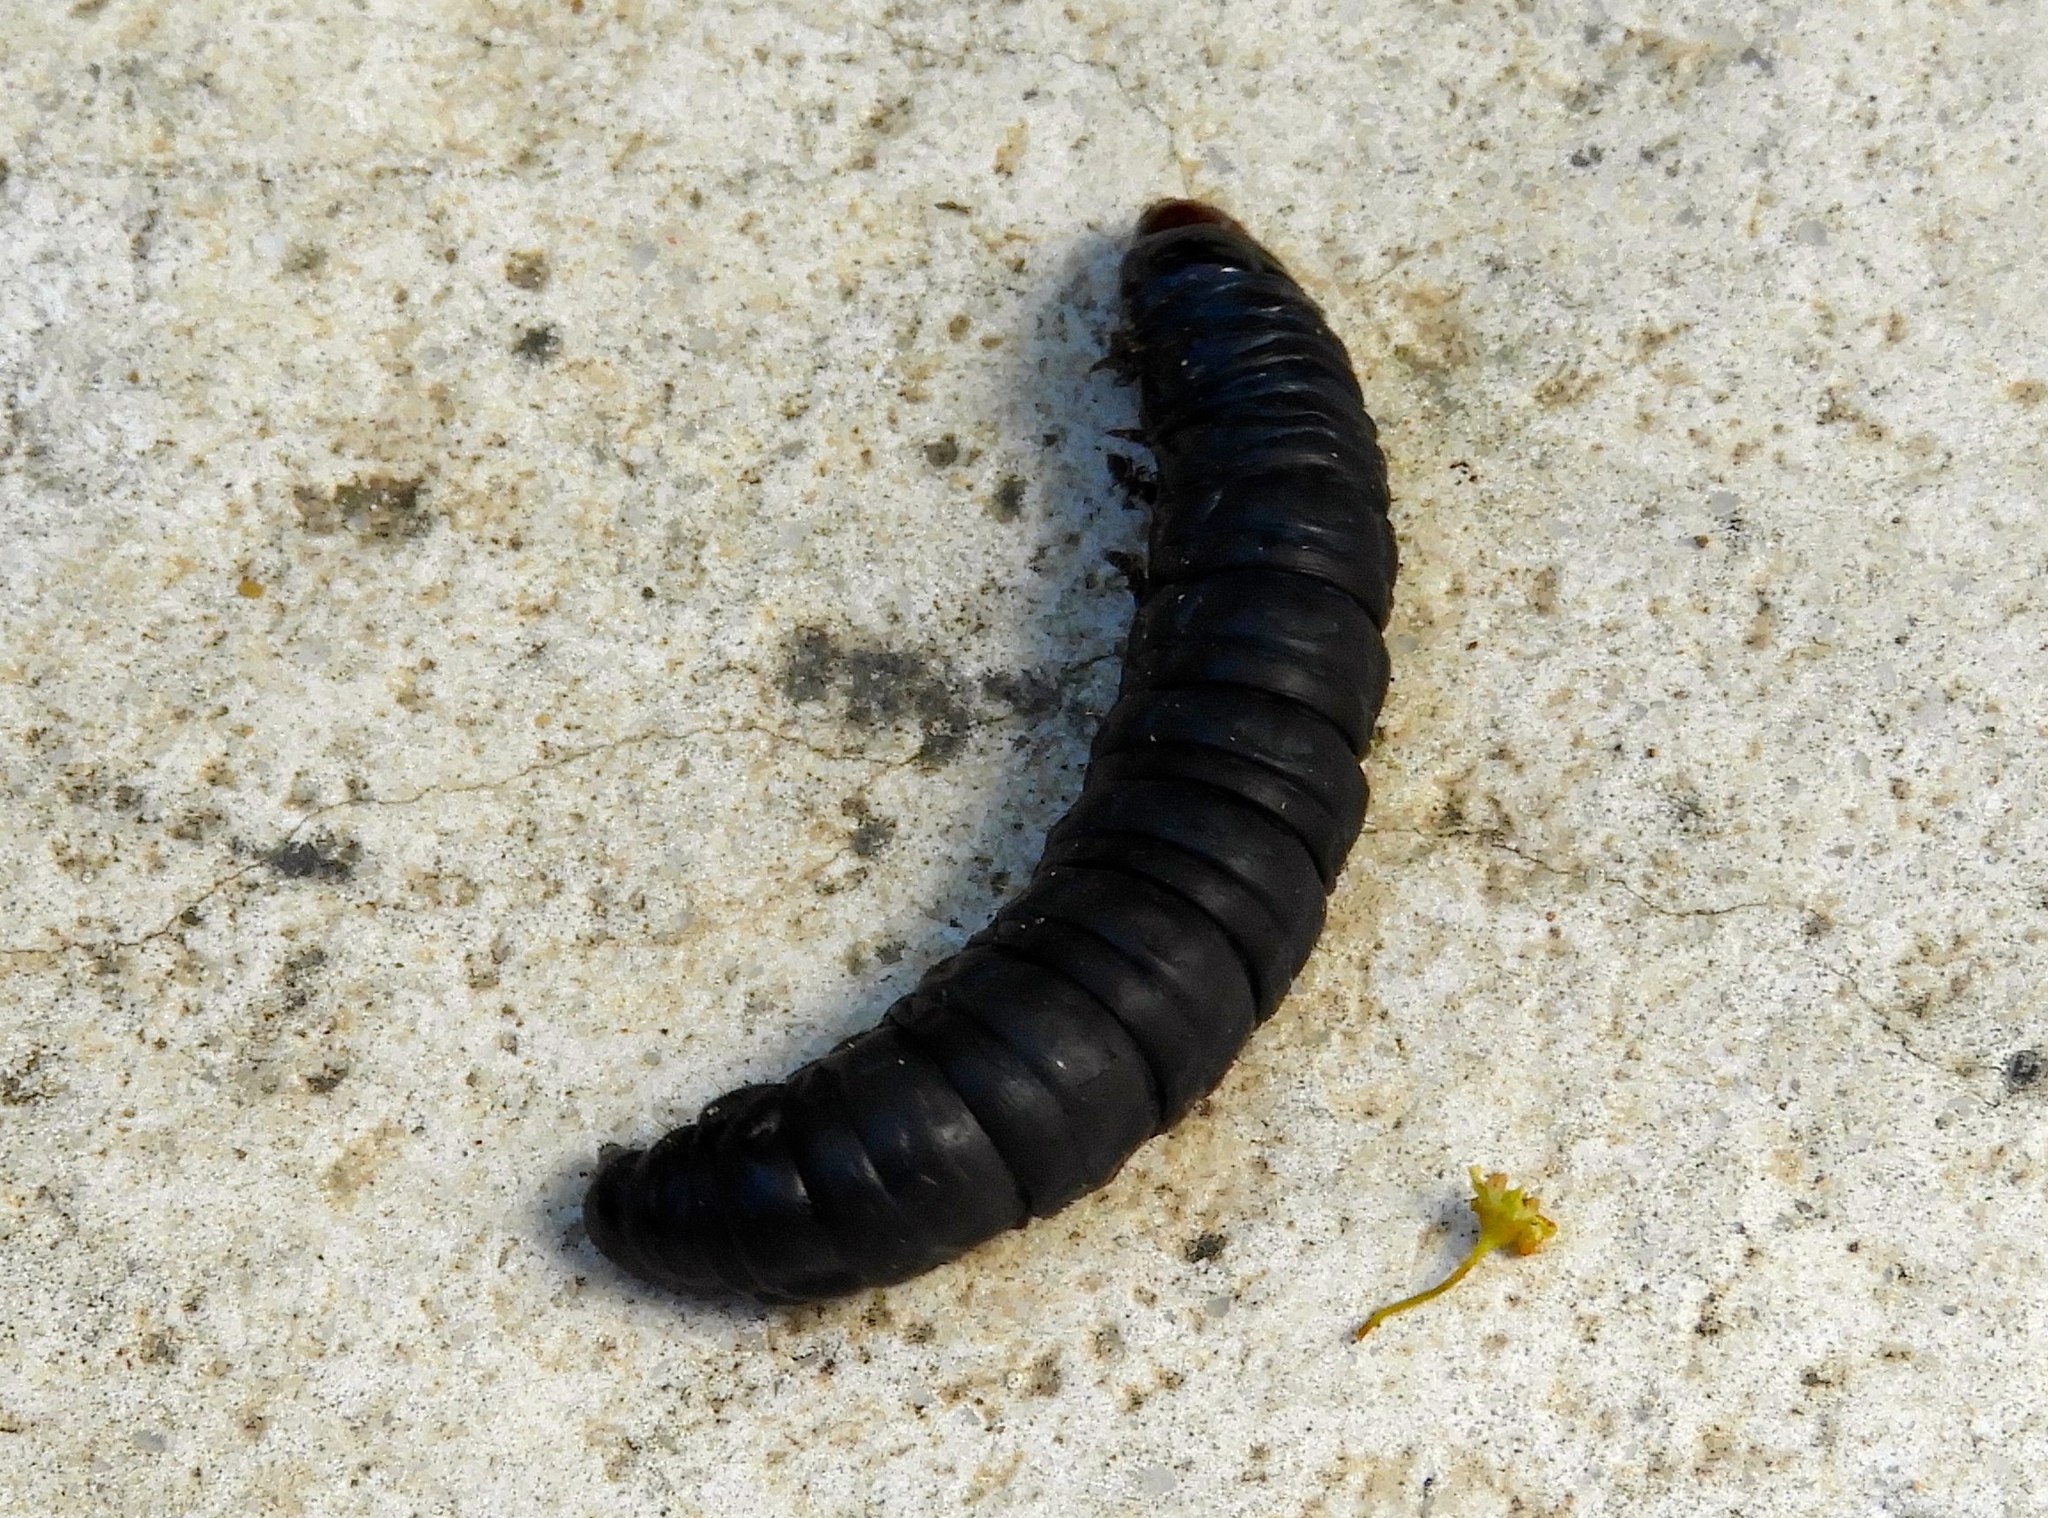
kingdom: Animalia
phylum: Arthropoda
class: Insecta
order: Hymenoptera
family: Formicidae
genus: Paratrechina
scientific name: Paratrechina longicornis
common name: Longhorned crazy ant
